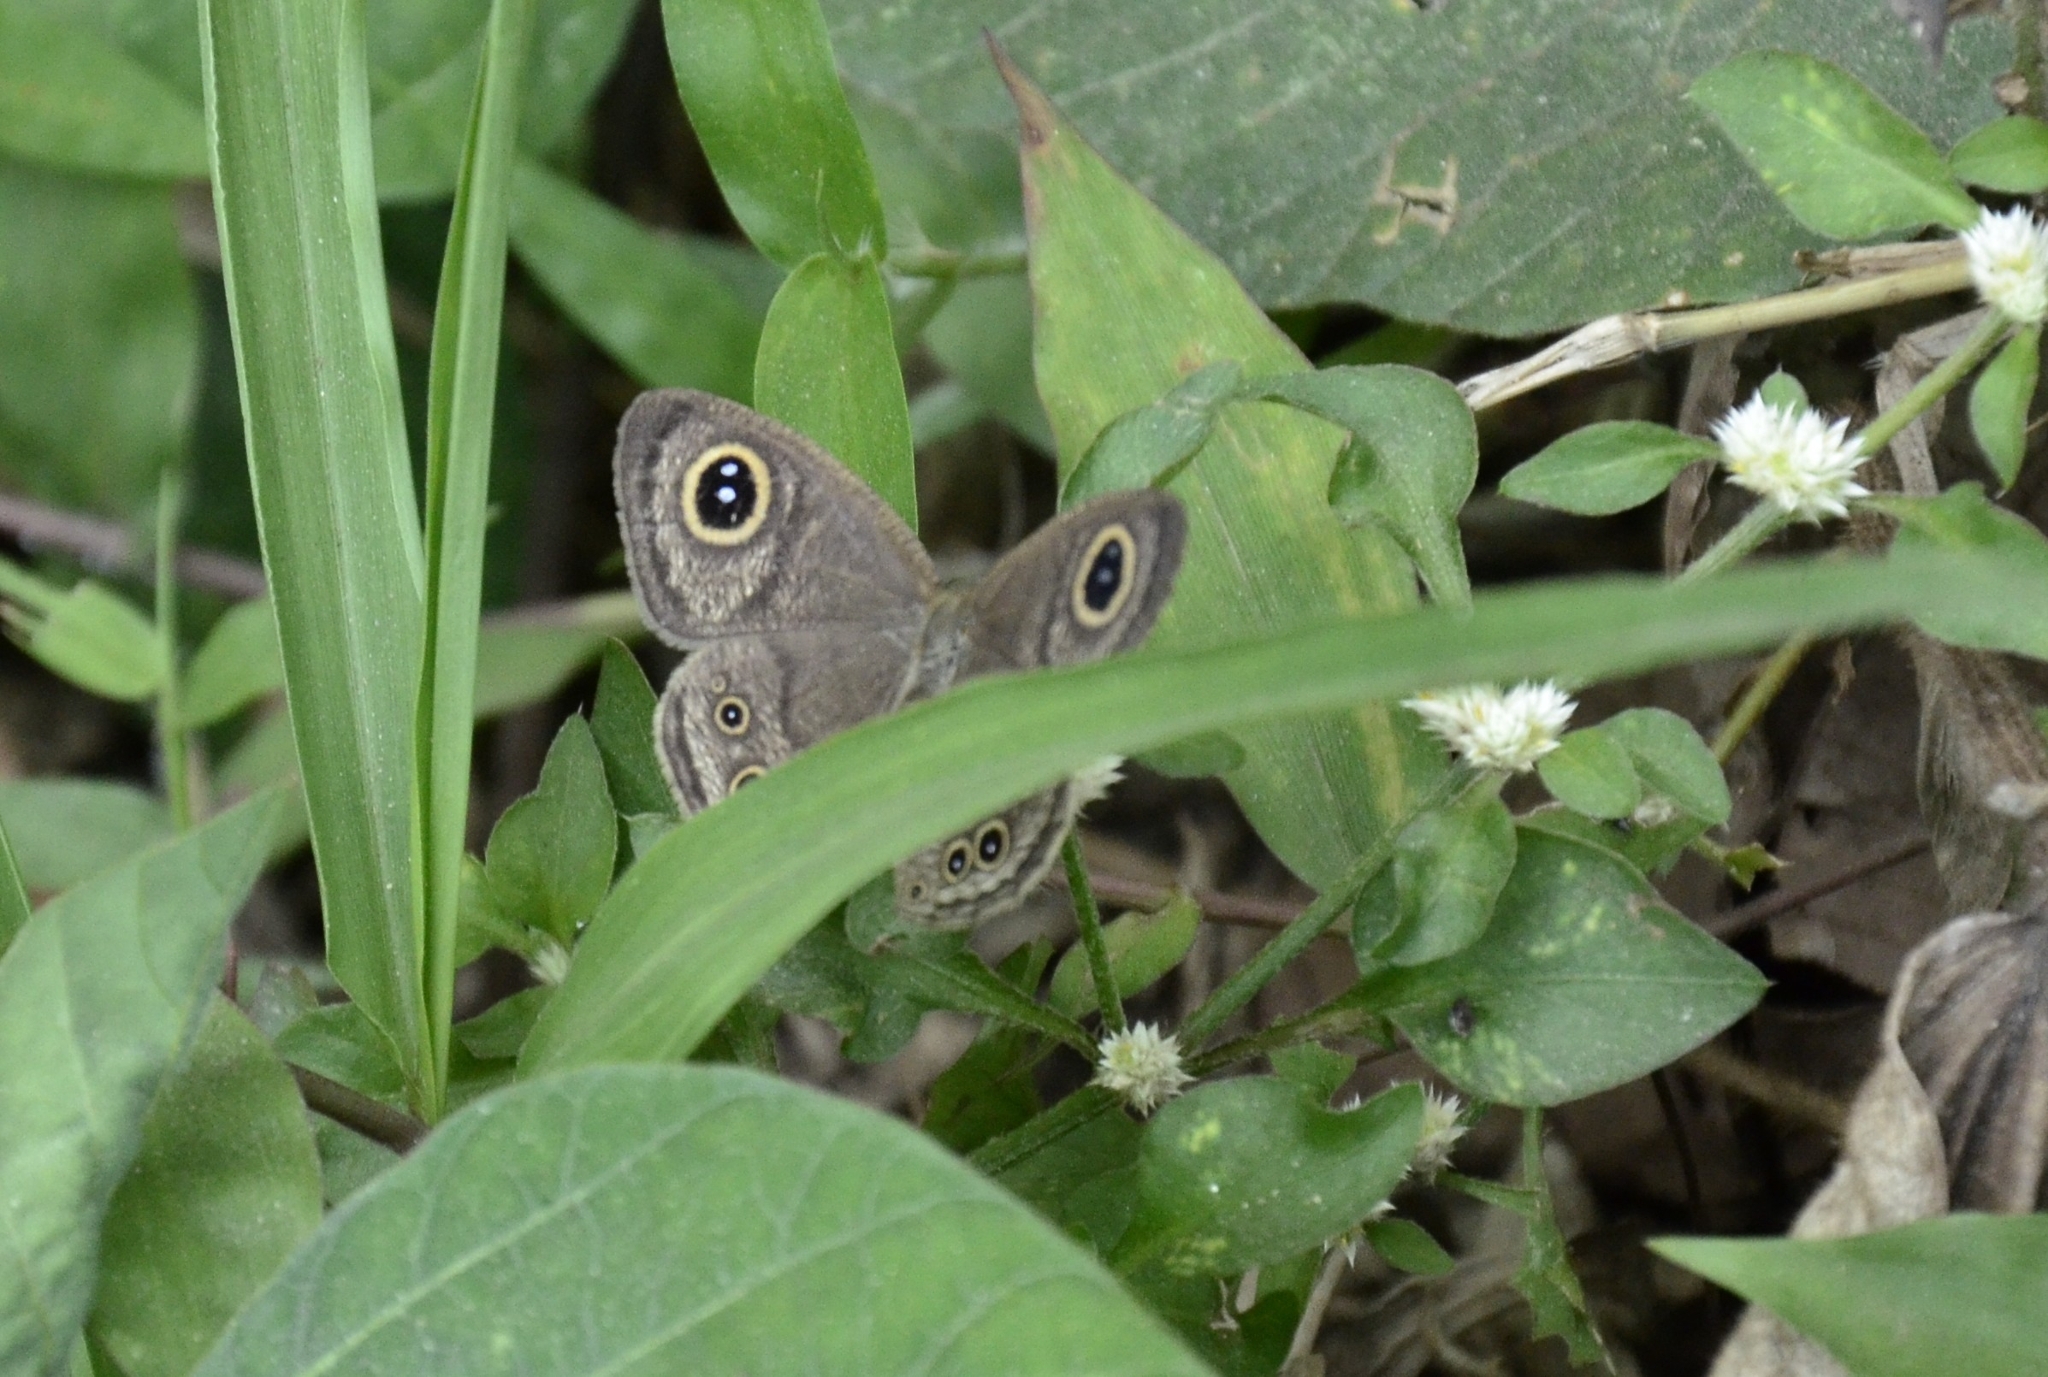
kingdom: Animalia
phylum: Arthropoda
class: Insecta
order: Lepidoptera
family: Nymphalidae
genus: Ypthima
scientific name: Ypthima baldus
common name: Common five-ring
